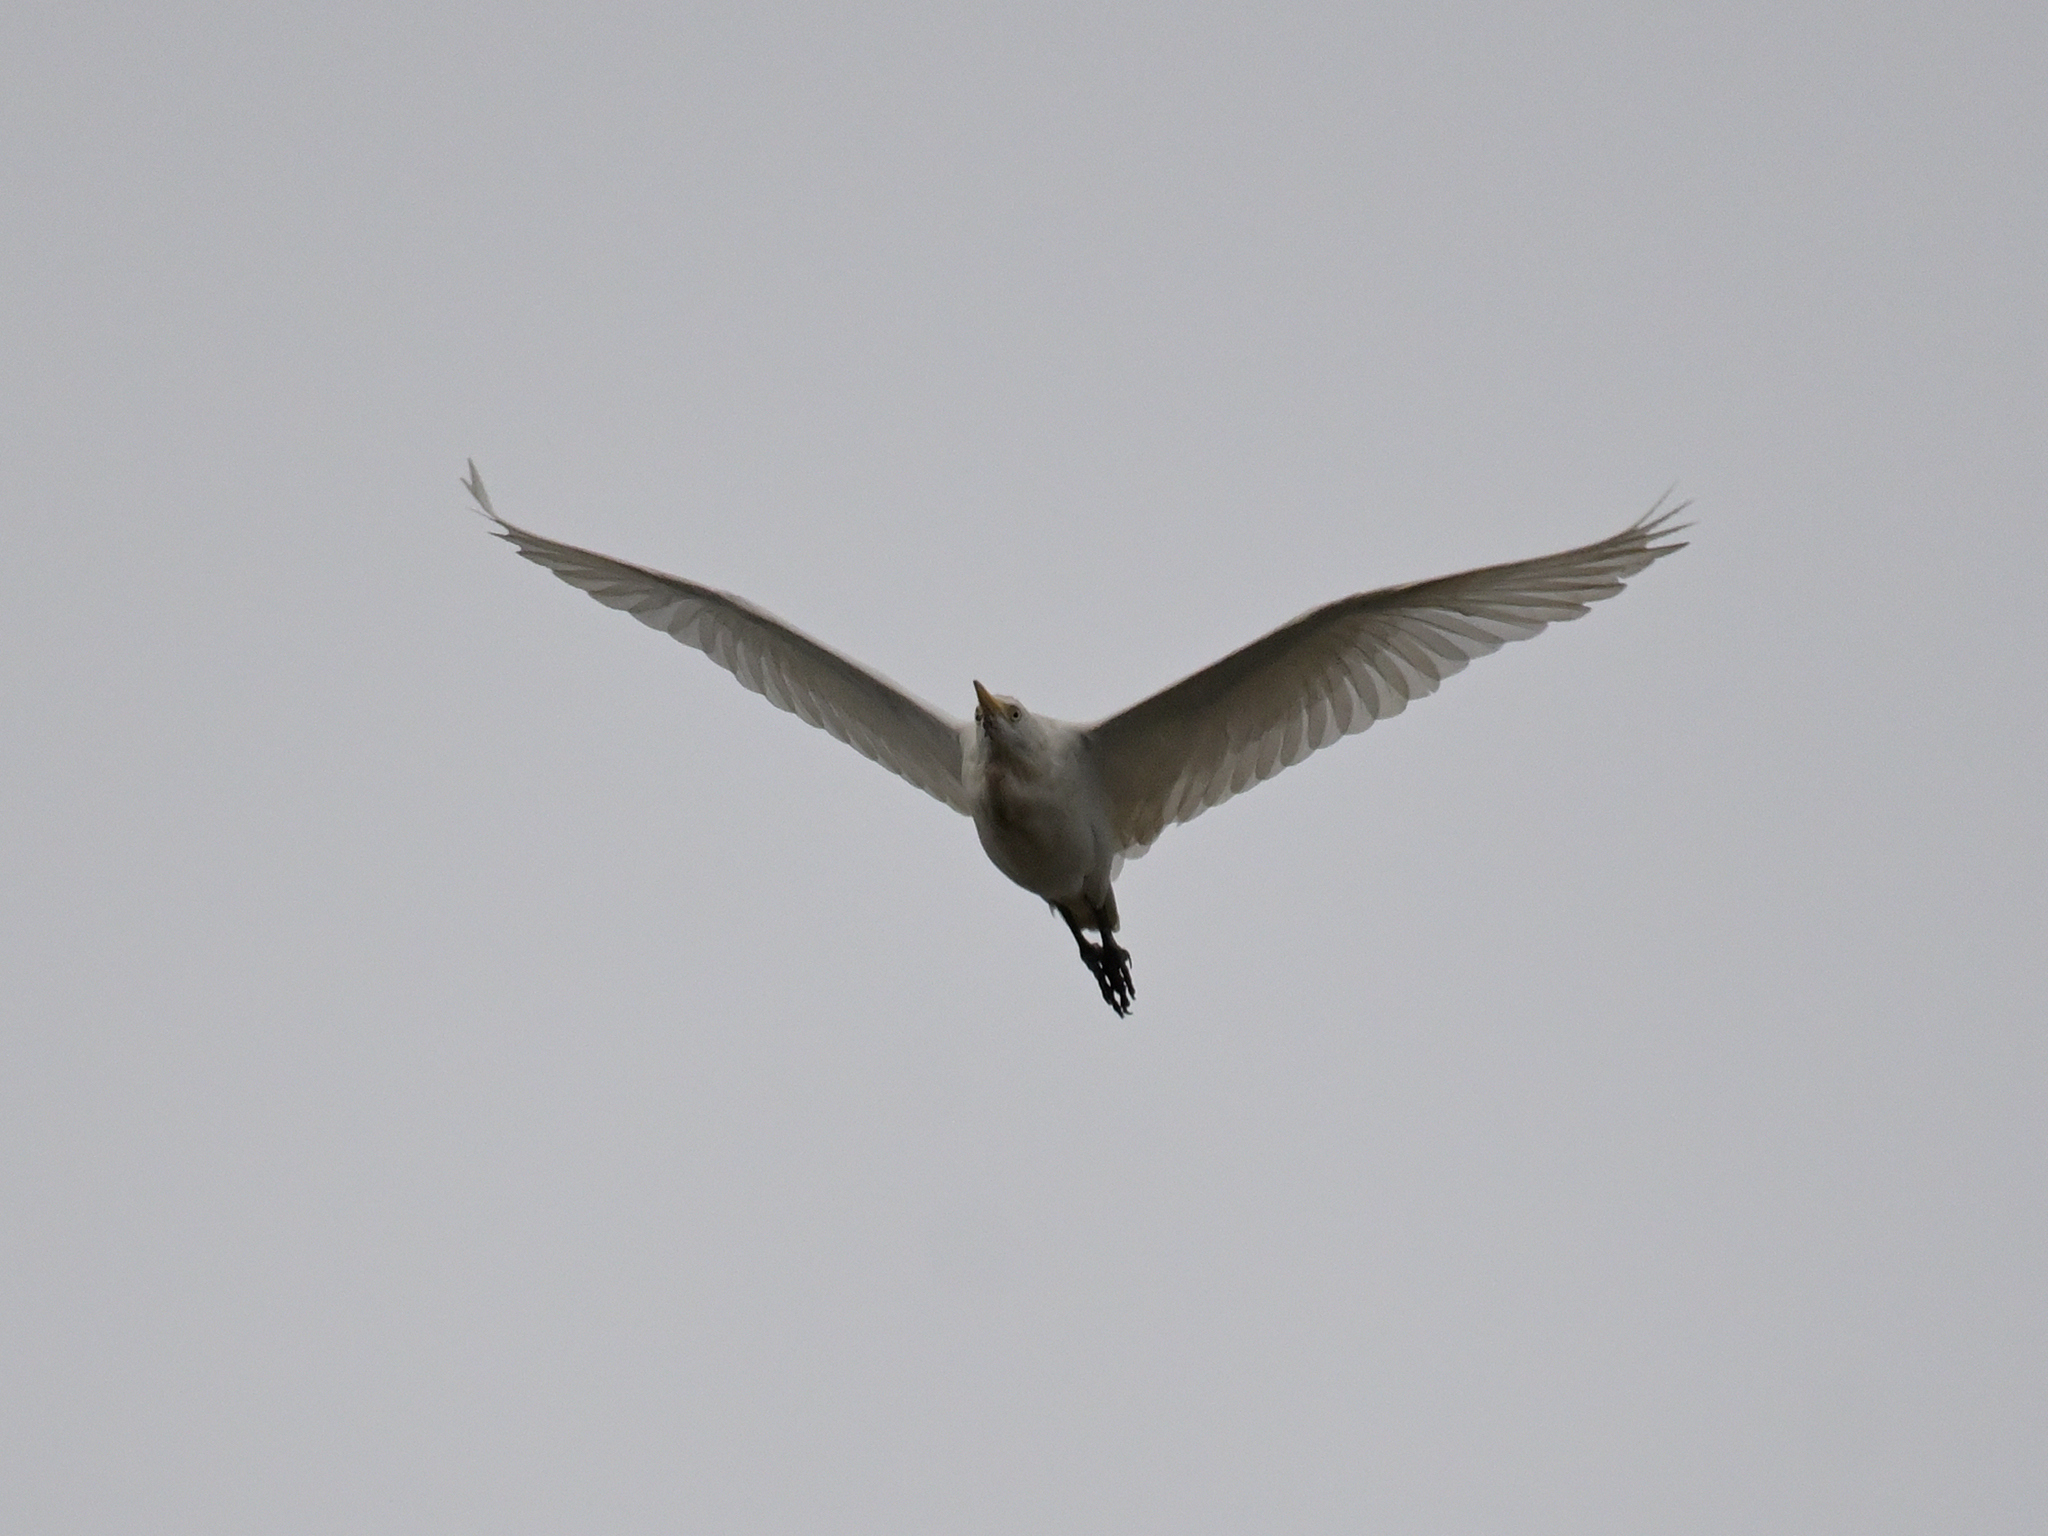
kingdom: Animalia
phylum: Chordata
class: Aves
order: Pelecaniformes
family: Ardeidae
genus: Bubulcus
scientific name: Bubulcus ibis
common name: Cattle egret
